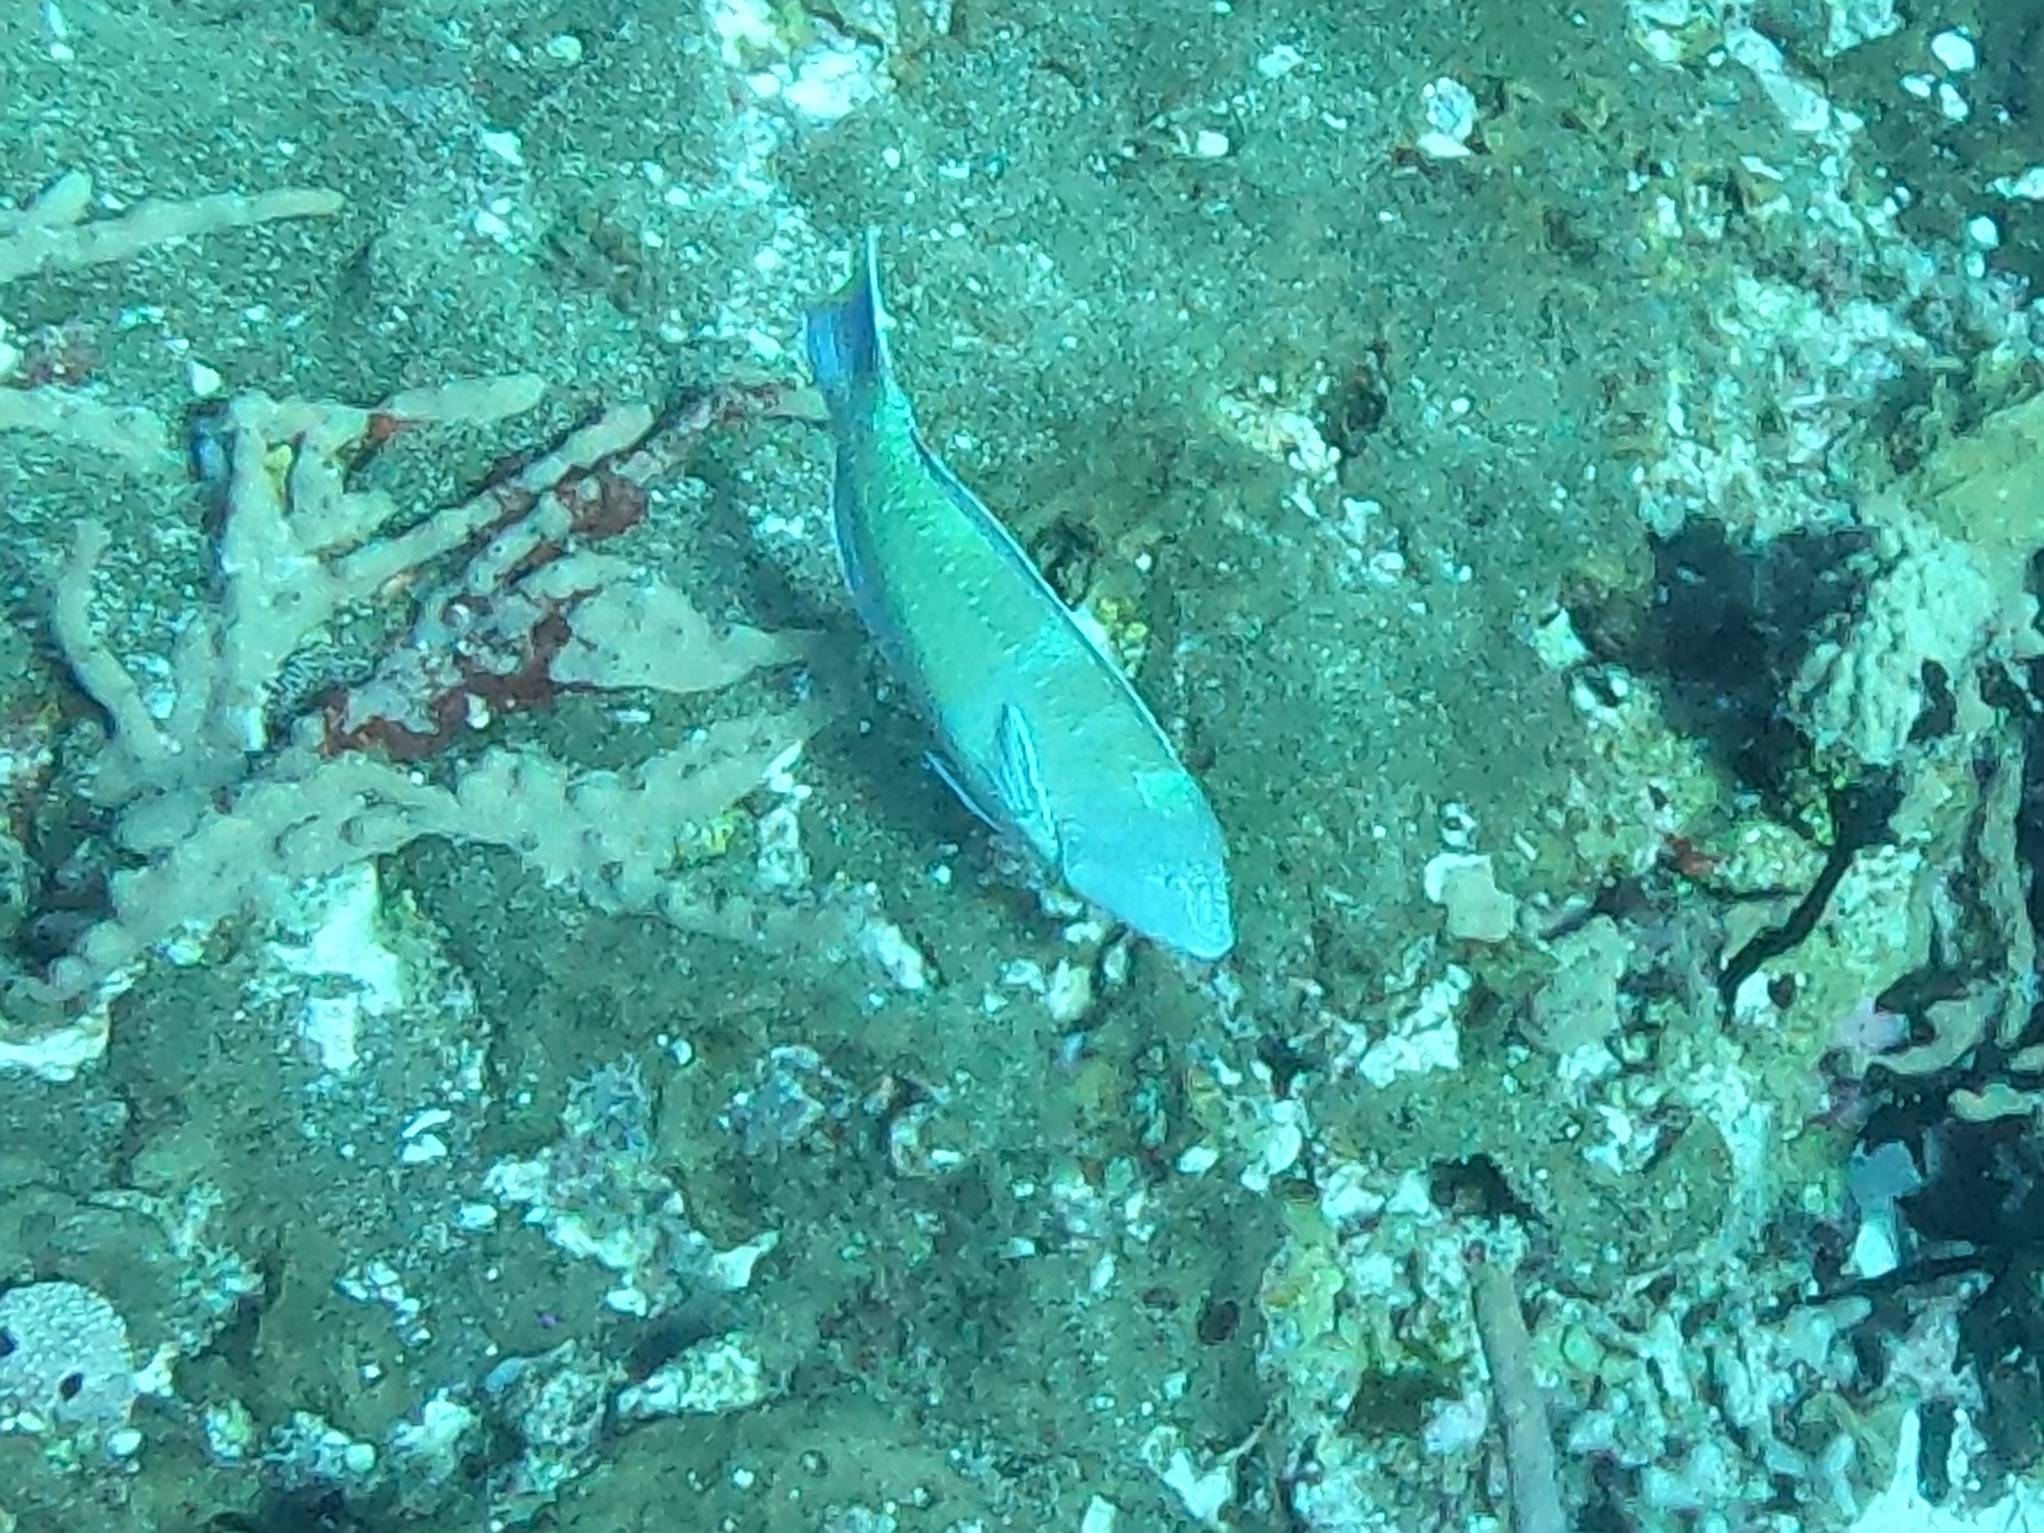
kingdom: Animalia
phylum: Chordata
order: Perciformes
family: Labridae
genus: Halichoeres
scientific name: Halichoeres radiatus
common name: Puddingwife
